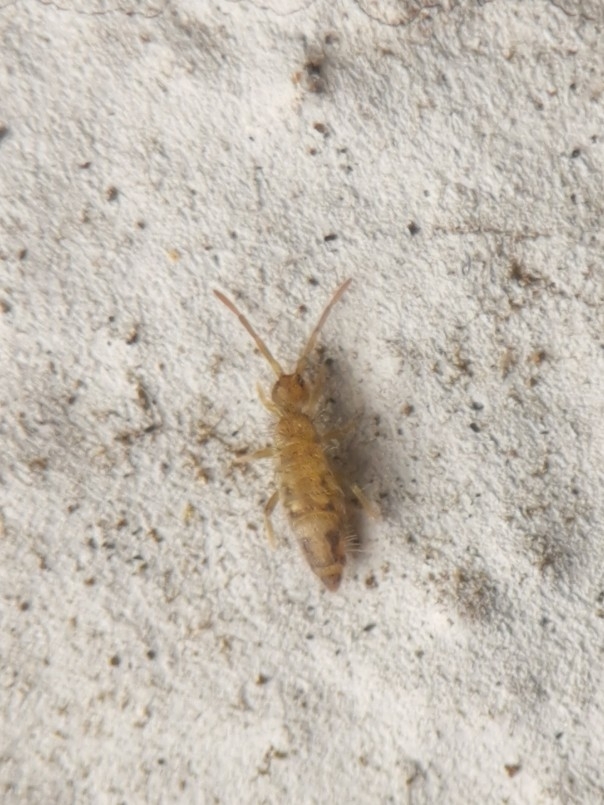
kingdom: Animalia
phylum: Arthropoda
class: Collembola
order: Entomobryomorpha
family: Entomobryidae
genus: Entomobrya
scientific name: Entomobrya nivalis
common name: Cosmopolitan springtail
